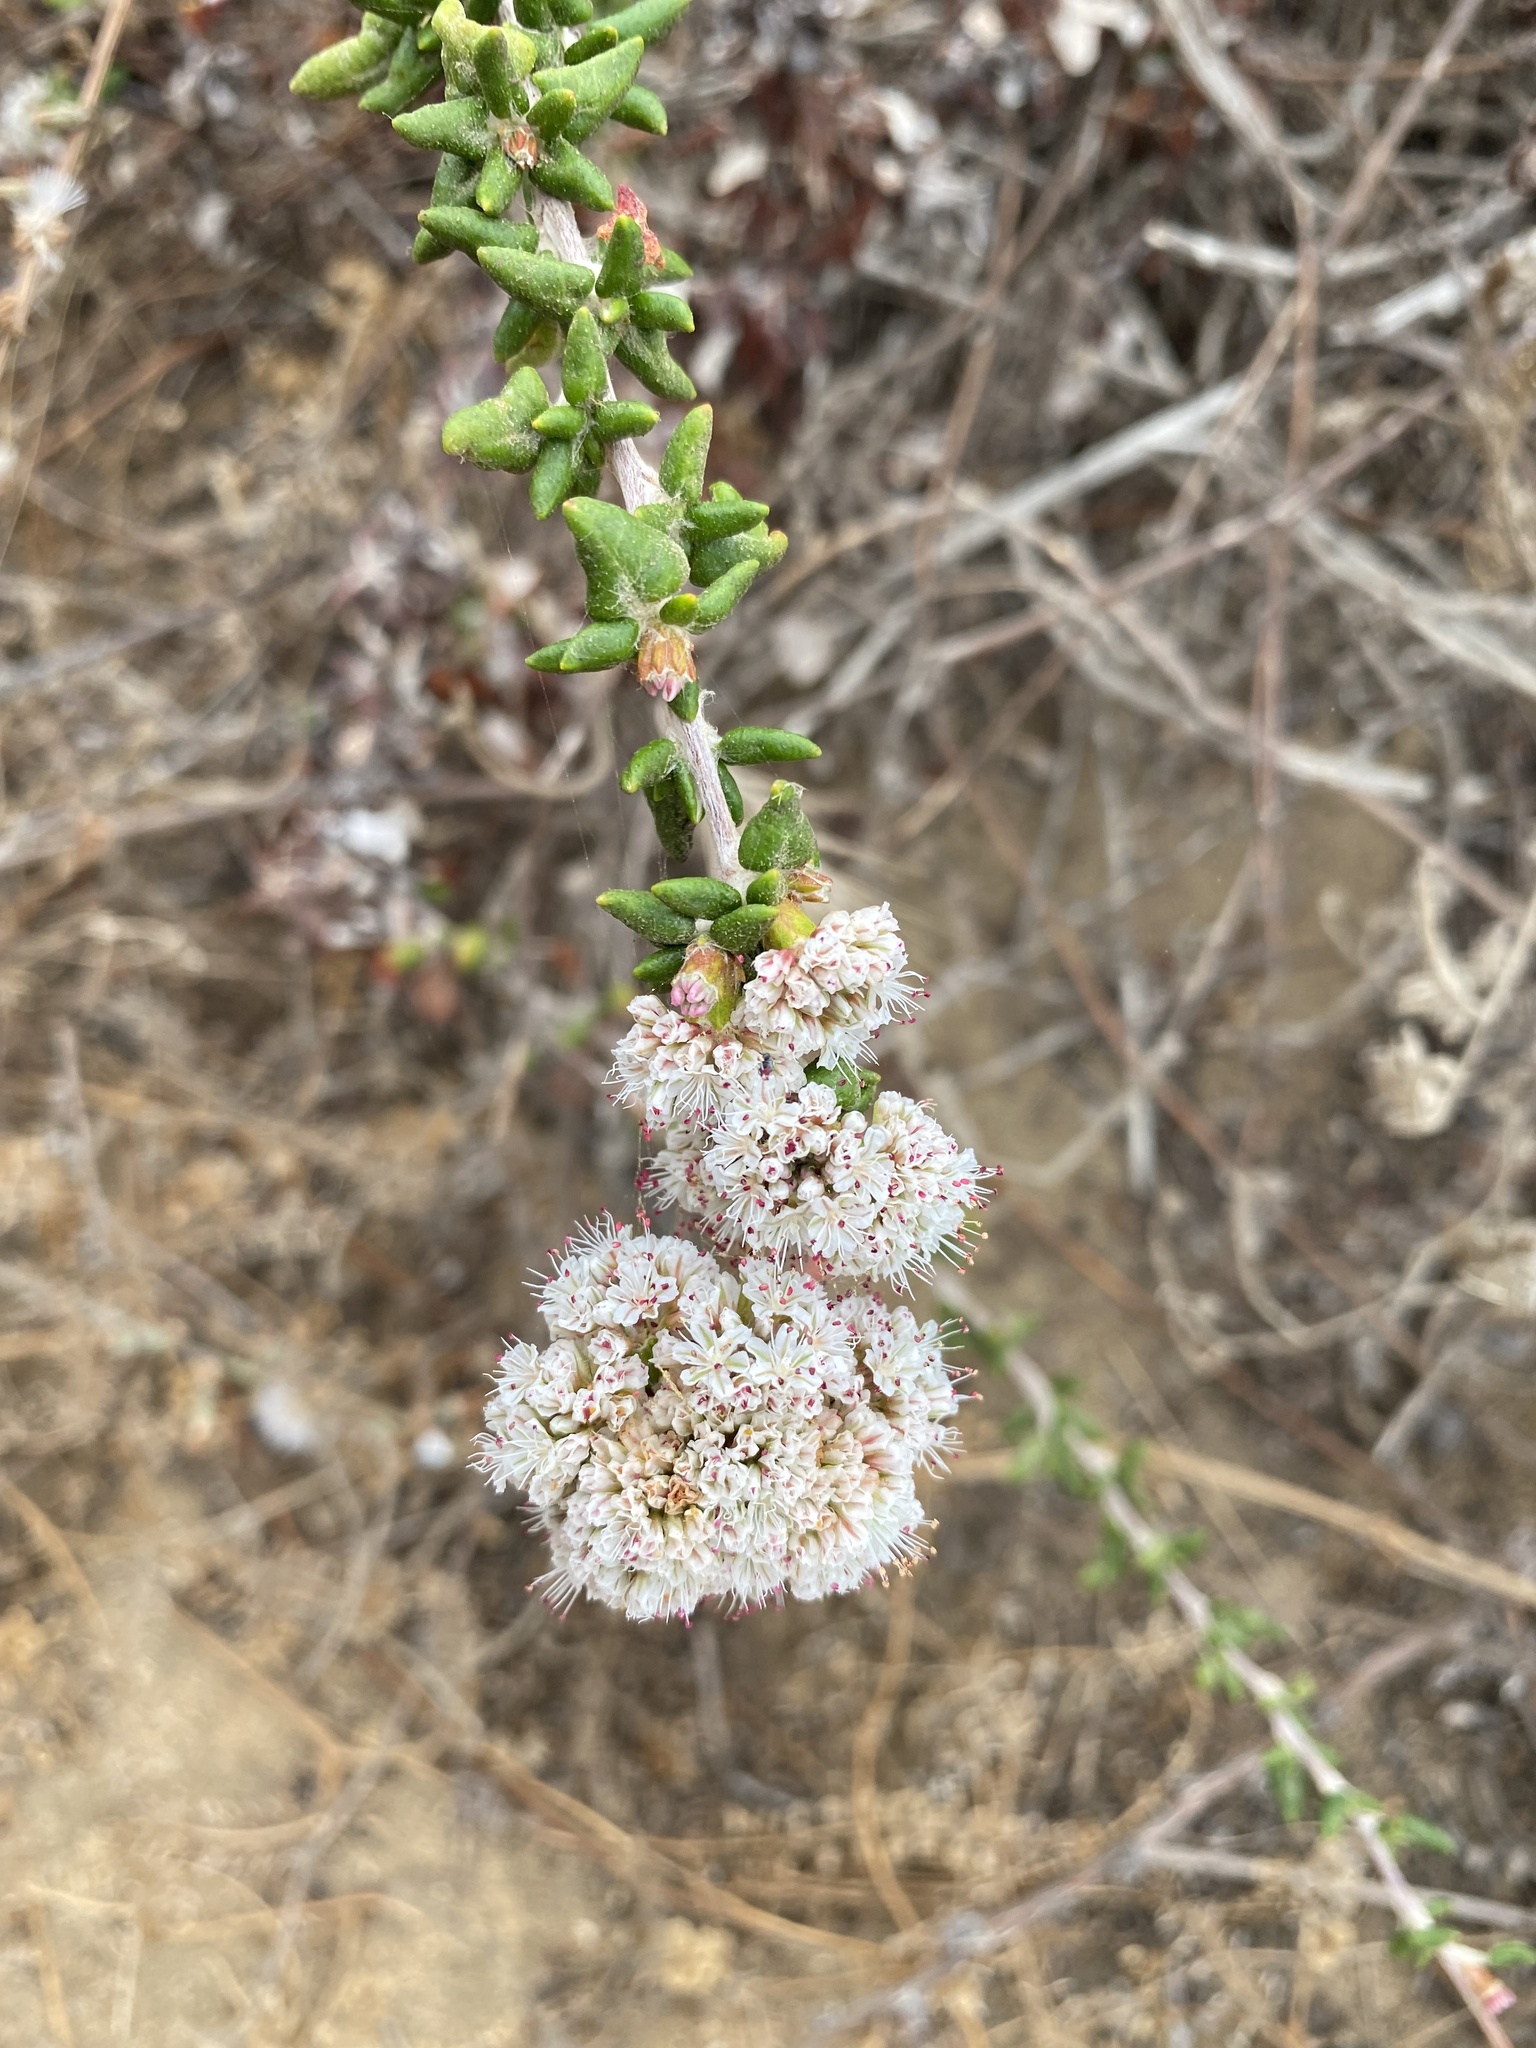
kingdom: Plantae
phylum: Tracheophyta
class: Magnoliopsida
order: Caryophyllales
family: Polygonaceae
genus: Eriogonum
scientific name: Eriogonum parvifolium
